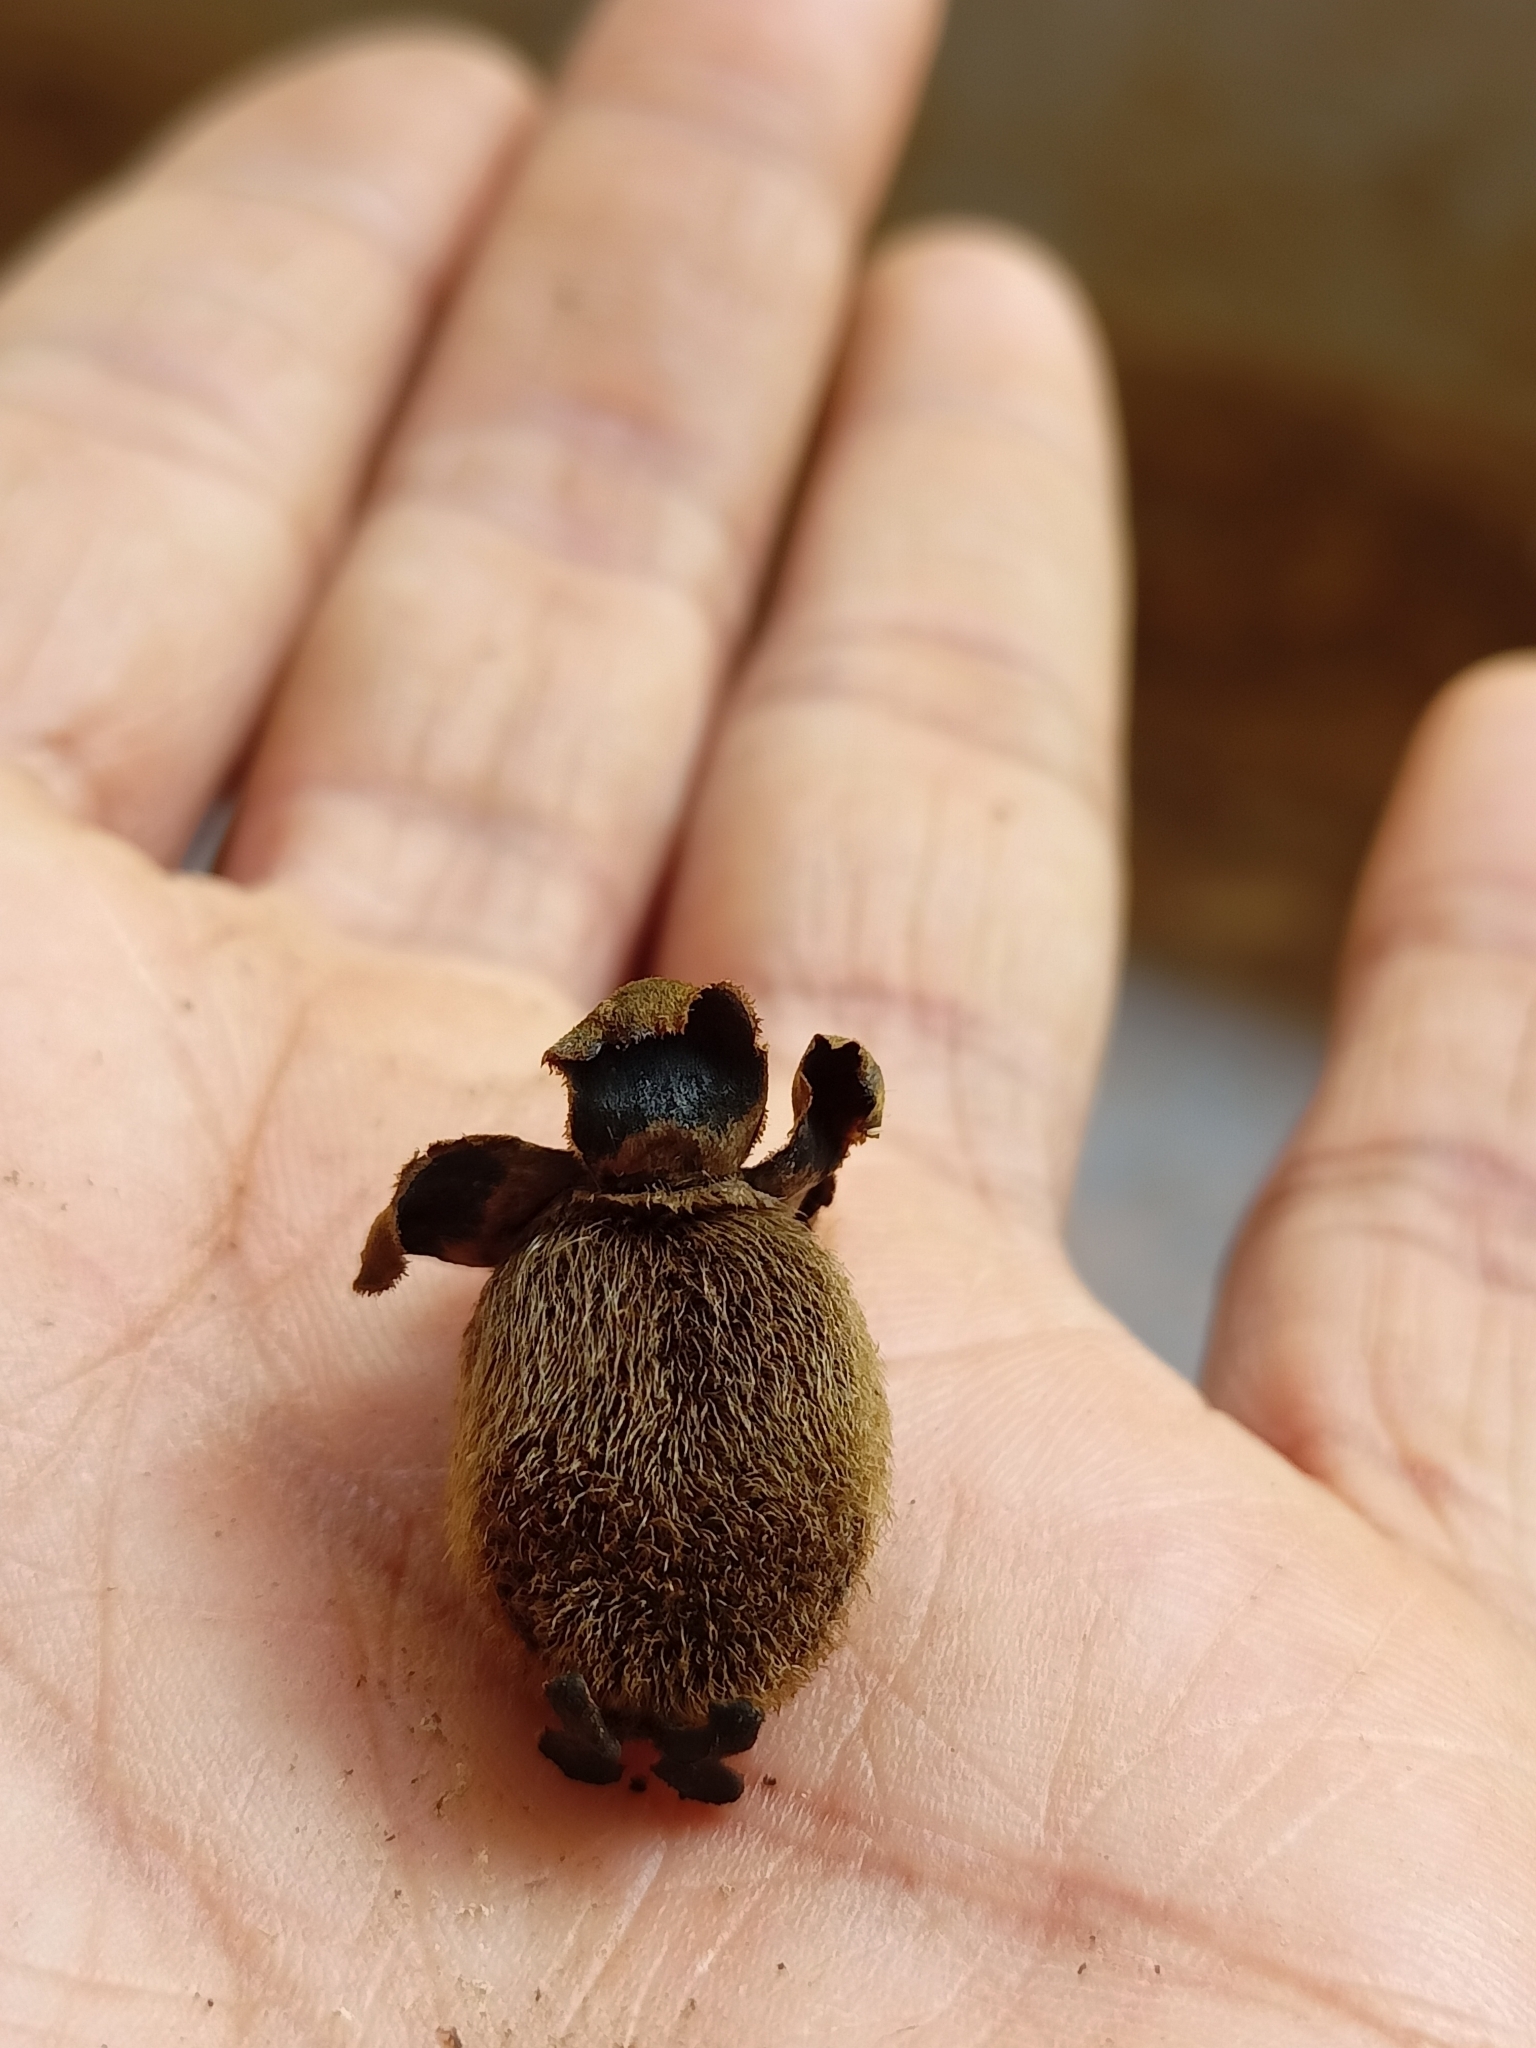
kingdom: Plantae
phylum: Tracheophyta
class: Magnoliopsida
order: Malpighiales
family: Putranjivaceae
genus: Drypetes
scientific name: Drypetes oblongifolia
